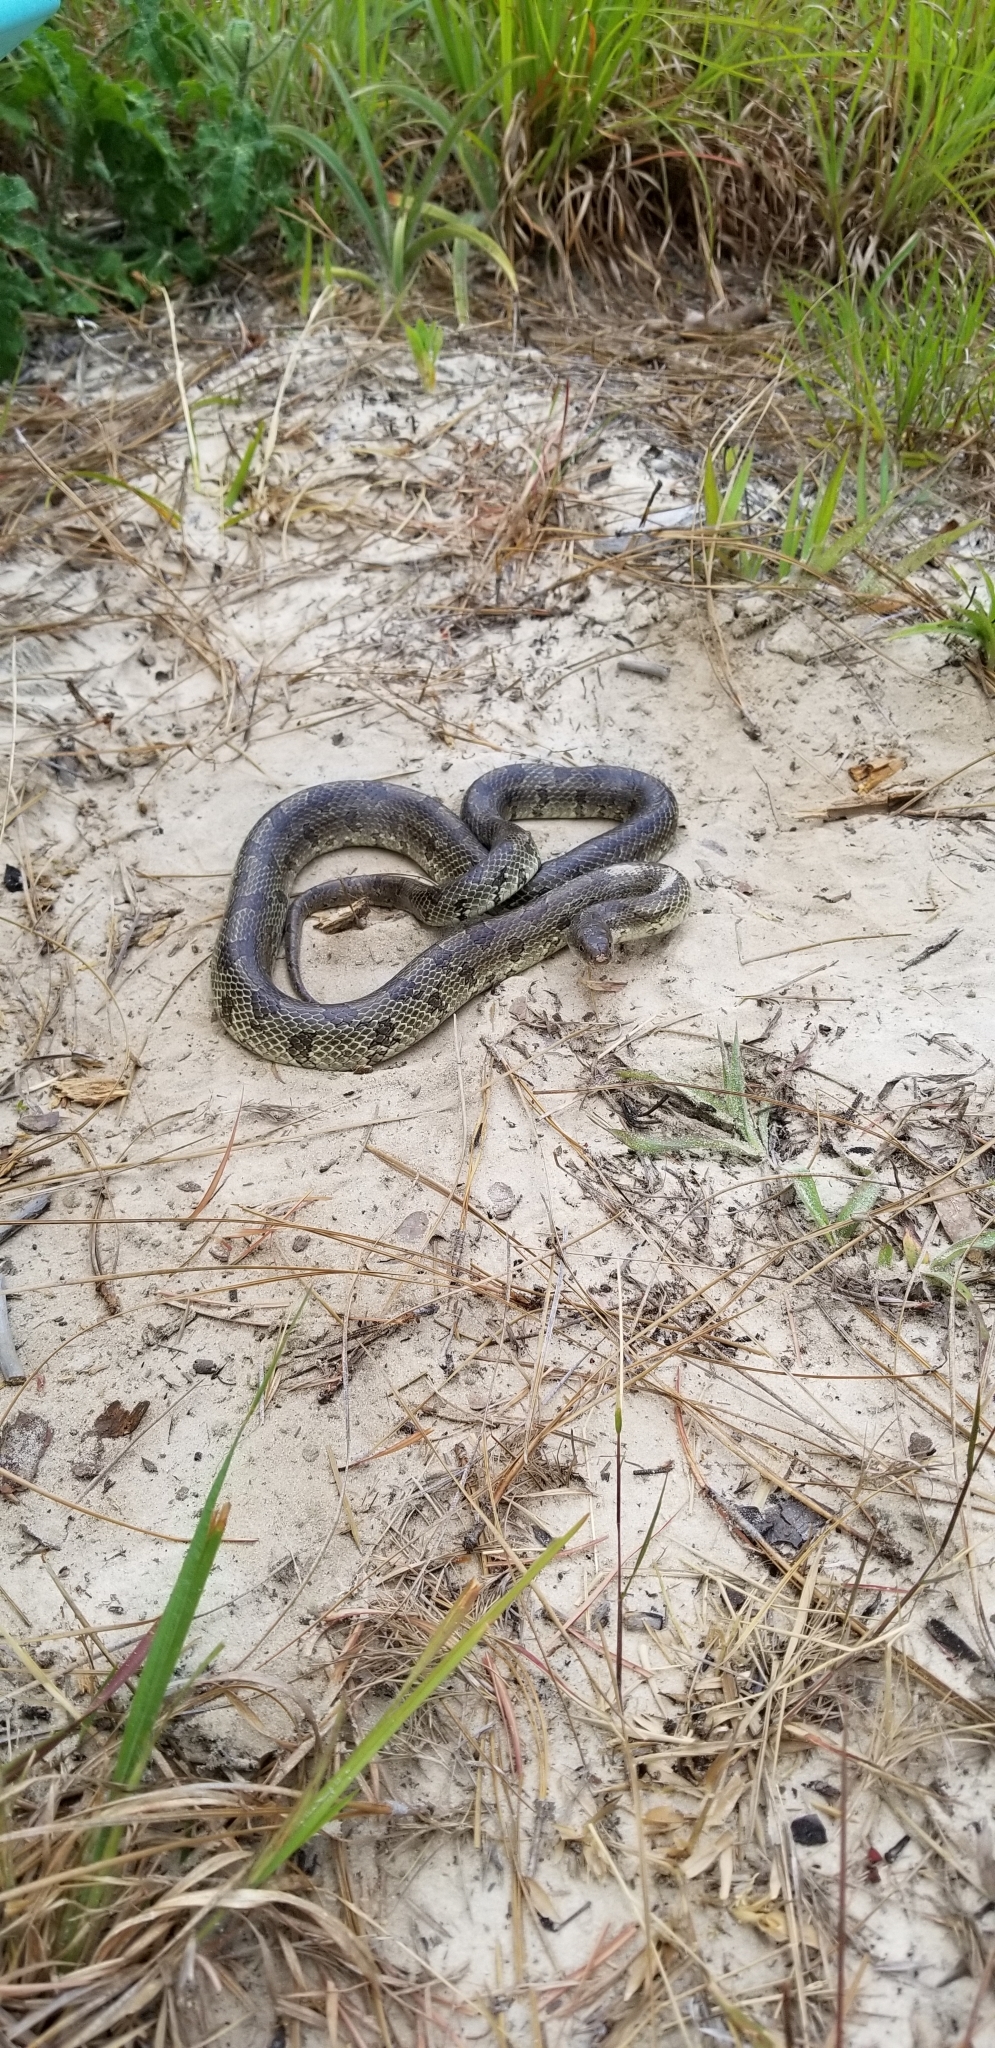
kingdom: Animalia
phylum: Chordata
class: Squamata
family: Colubridae
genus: Lampropeltis
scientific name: Lampropeltis calligaster
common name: Prairie kingsnake
